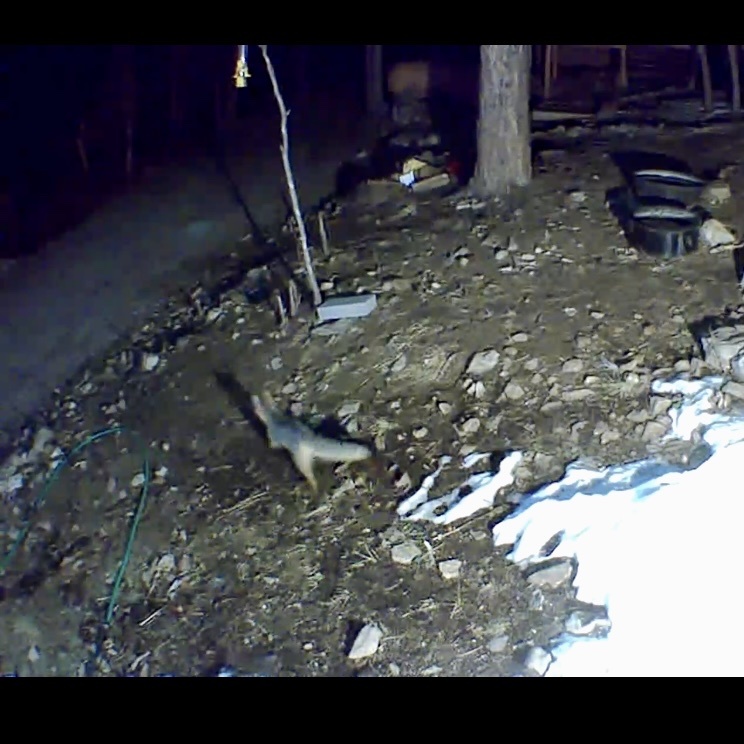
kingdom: Animalia
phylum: Chordata
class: Mammalia
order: Carnivora
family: Canidae
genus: Urocyon
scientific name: Urocyon cinereoargenteus
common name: Gray fox
